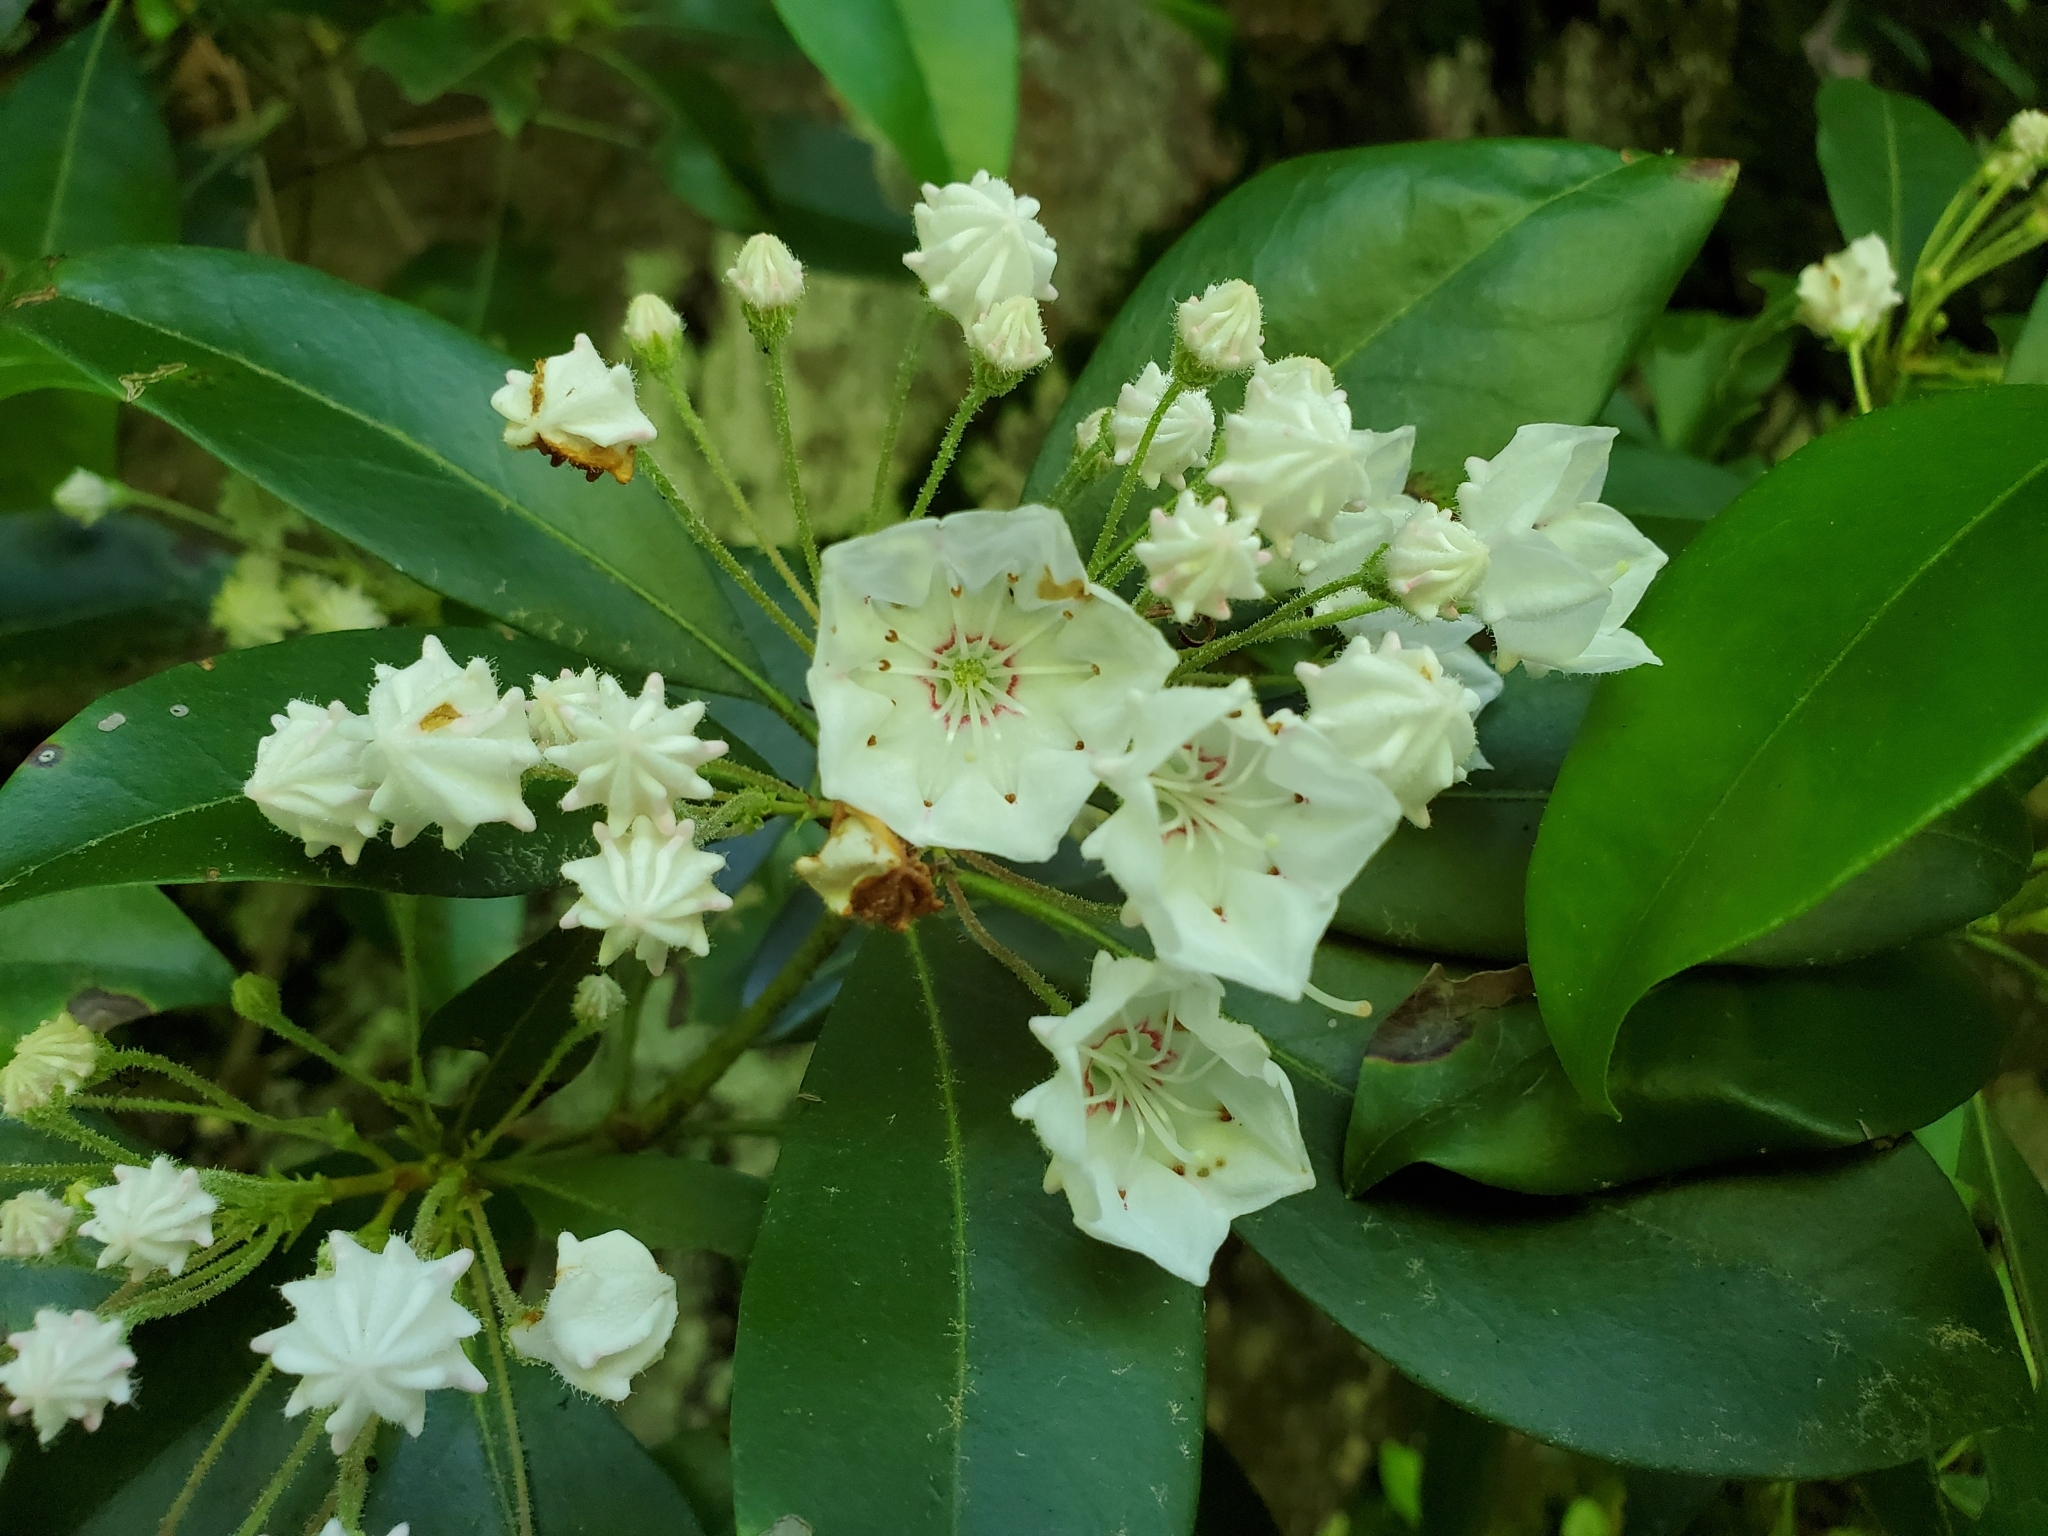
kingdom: Plantae
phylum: Tracheophyta
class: Magnoliopsida
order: Ericales
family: Ericaceae
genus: Kalmia
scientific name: Kalmia latifolia
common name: Mountain-laurel
